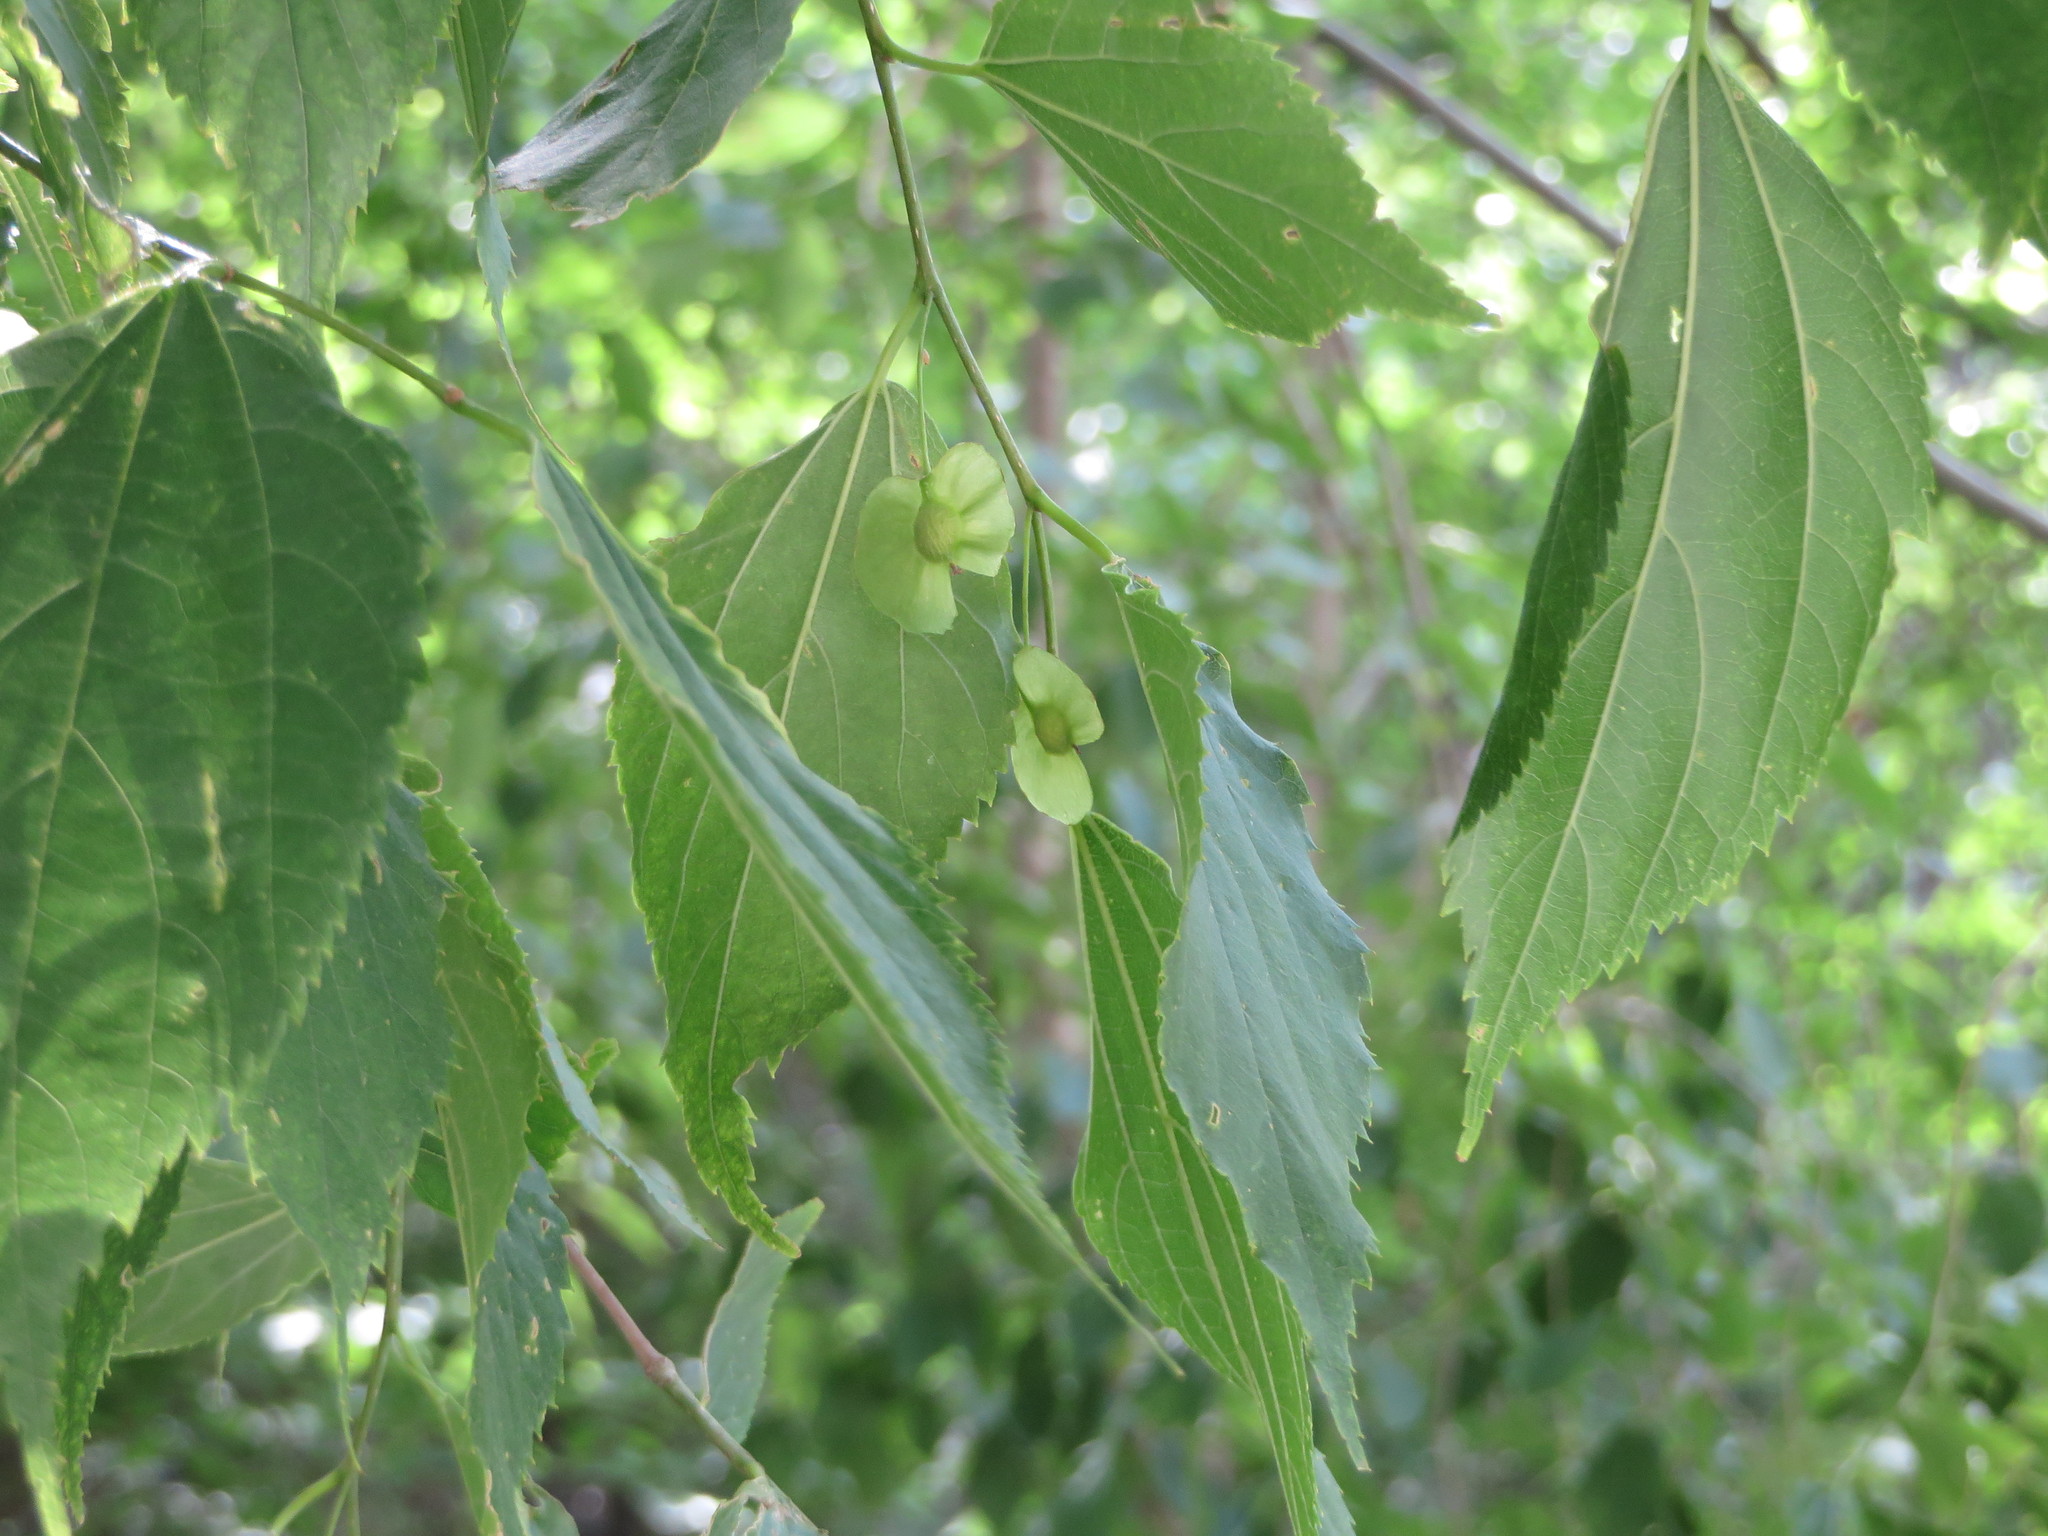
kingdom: Plantae
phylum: Tracheophyta
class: Magnoliopsida
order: Rosales
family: Cannabaceae
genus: Pteroceltis
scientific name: Pteroceltis tatarinowii
